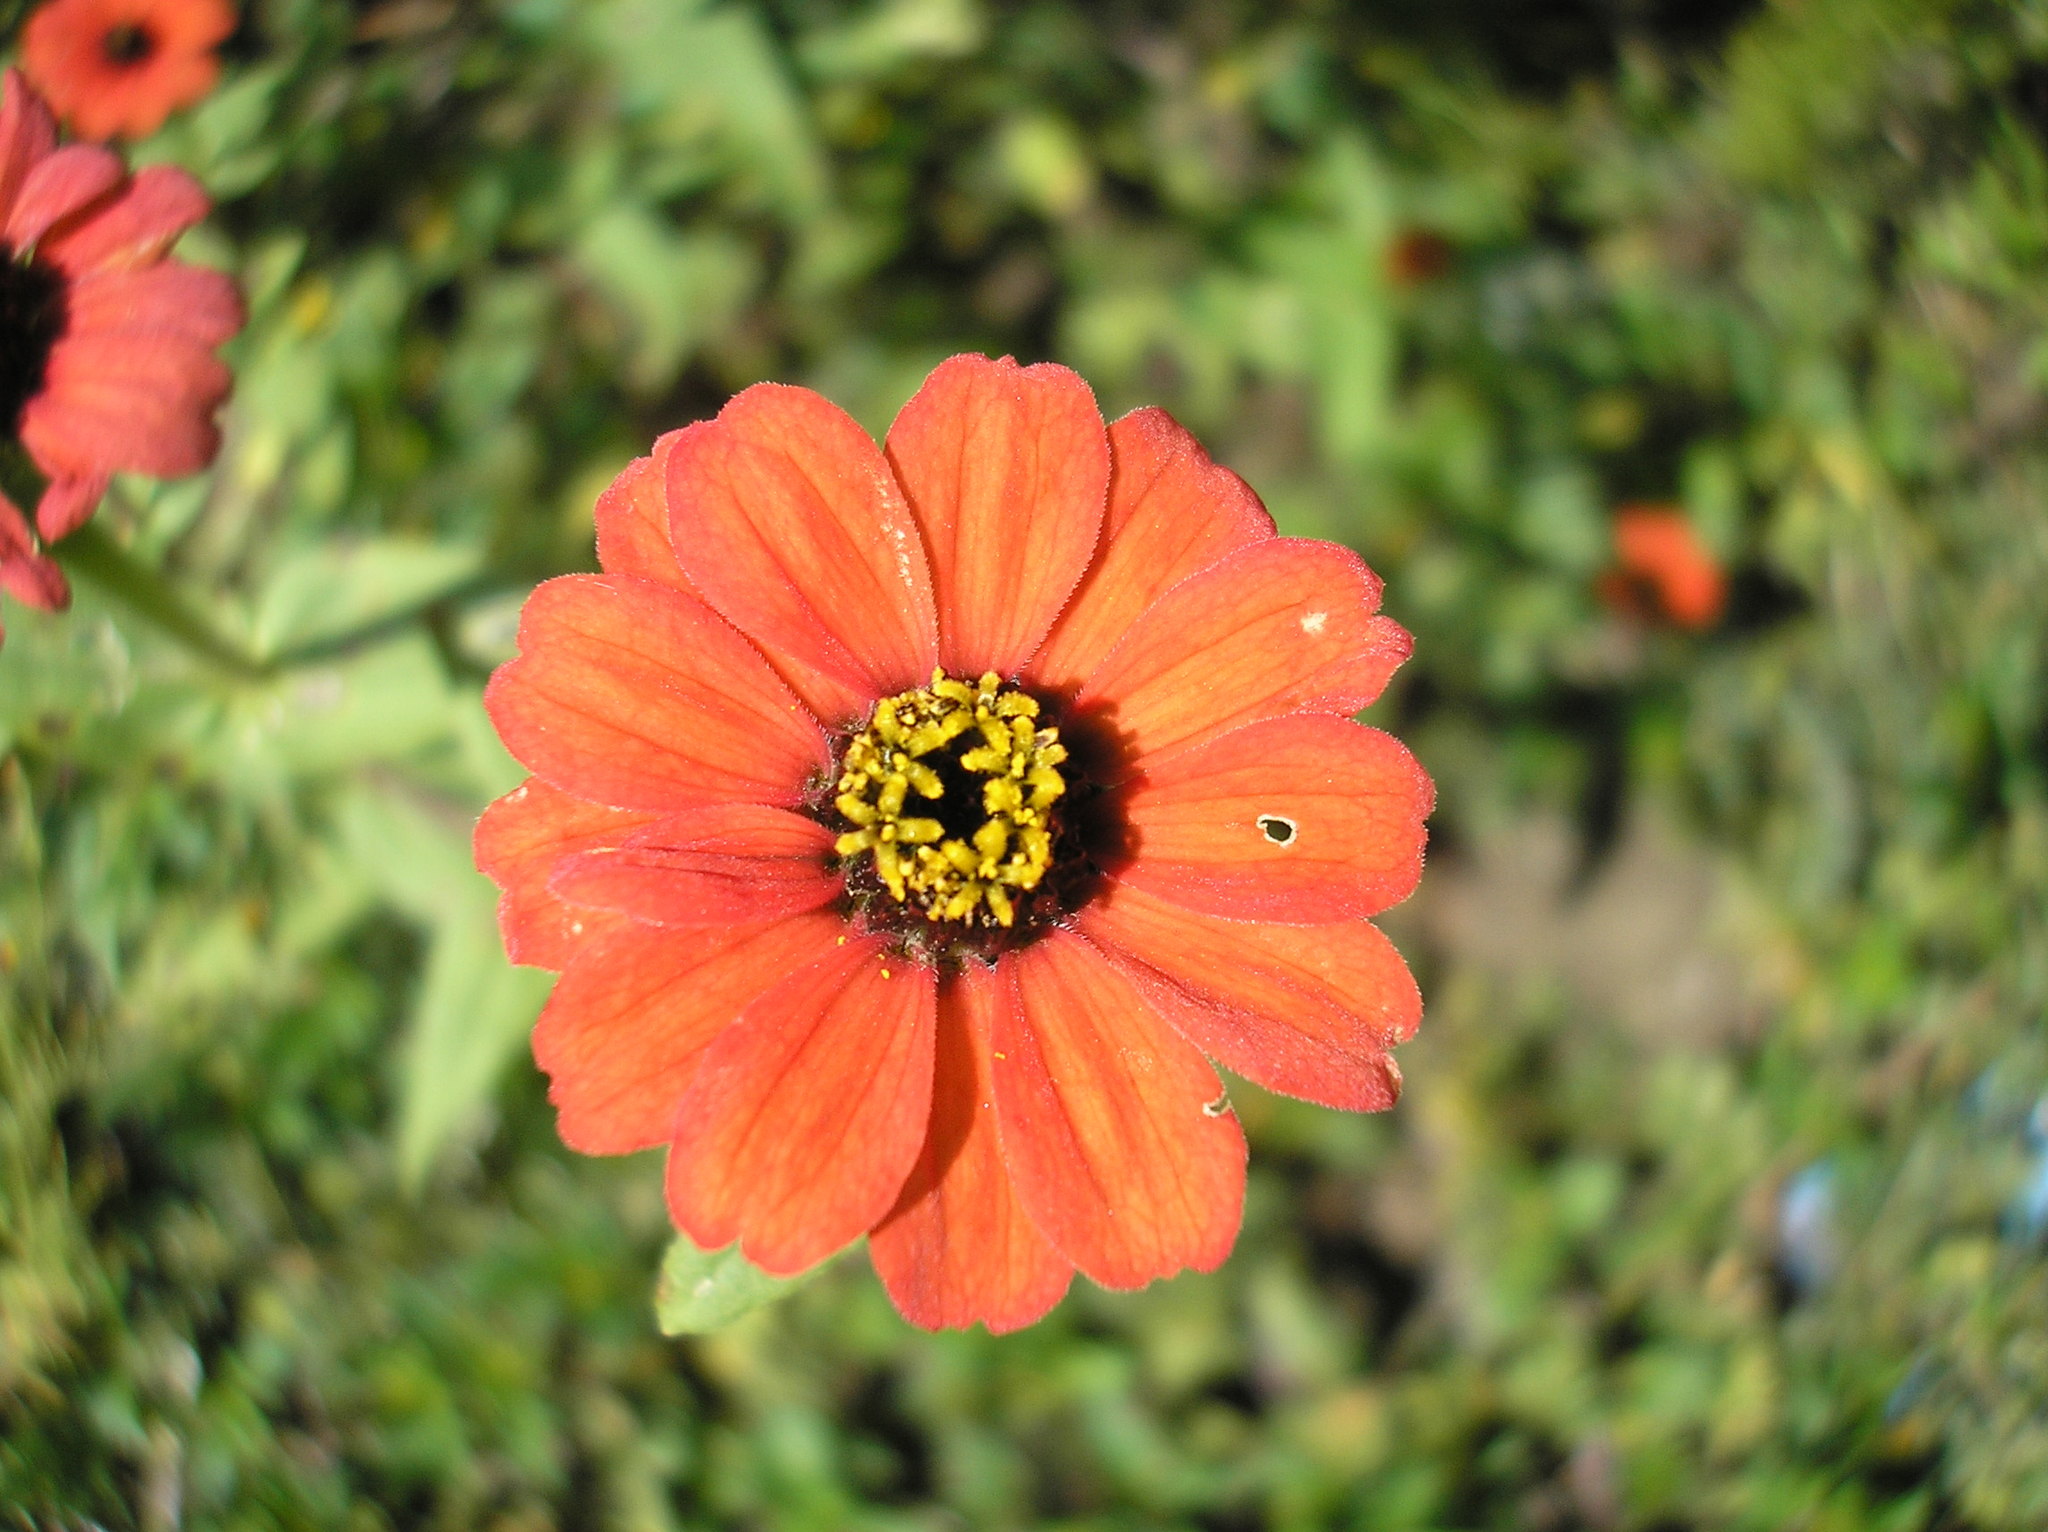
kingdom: Plantae
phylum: Tracheophyta
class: Magnoliopsida
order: Asterales
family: Asteraceae
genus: Zinnia
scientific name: Zinnia peruviana
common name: Peruvian zinnia
